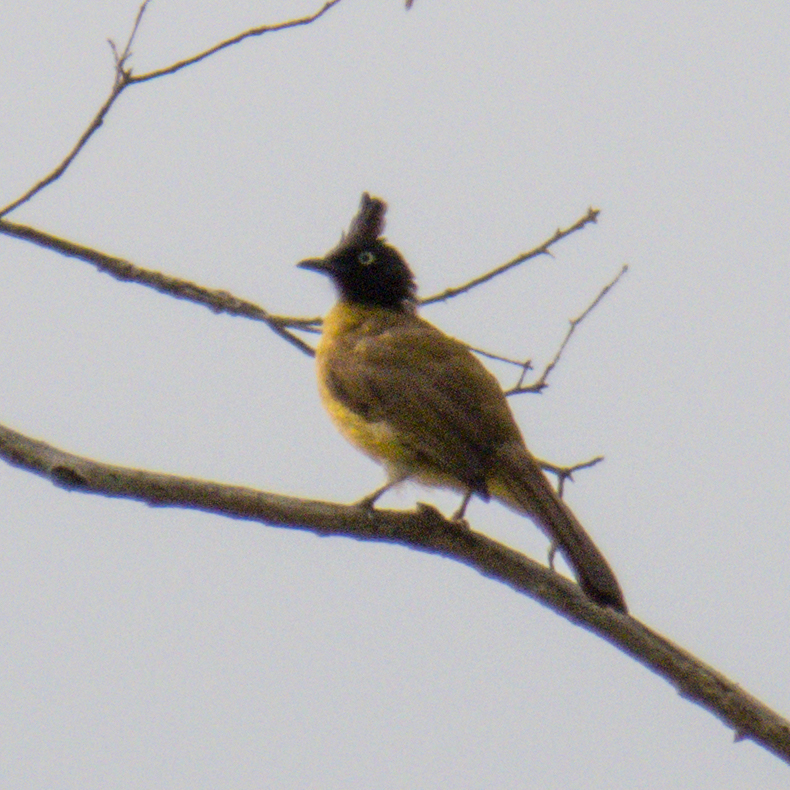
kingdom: Animalia
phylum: Chordata
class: Aves
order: Passeriformes
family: Pycnonotidae
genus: Pycnonotus
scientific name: Pycnonotus flaviventris
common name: Black-crested bulbul
